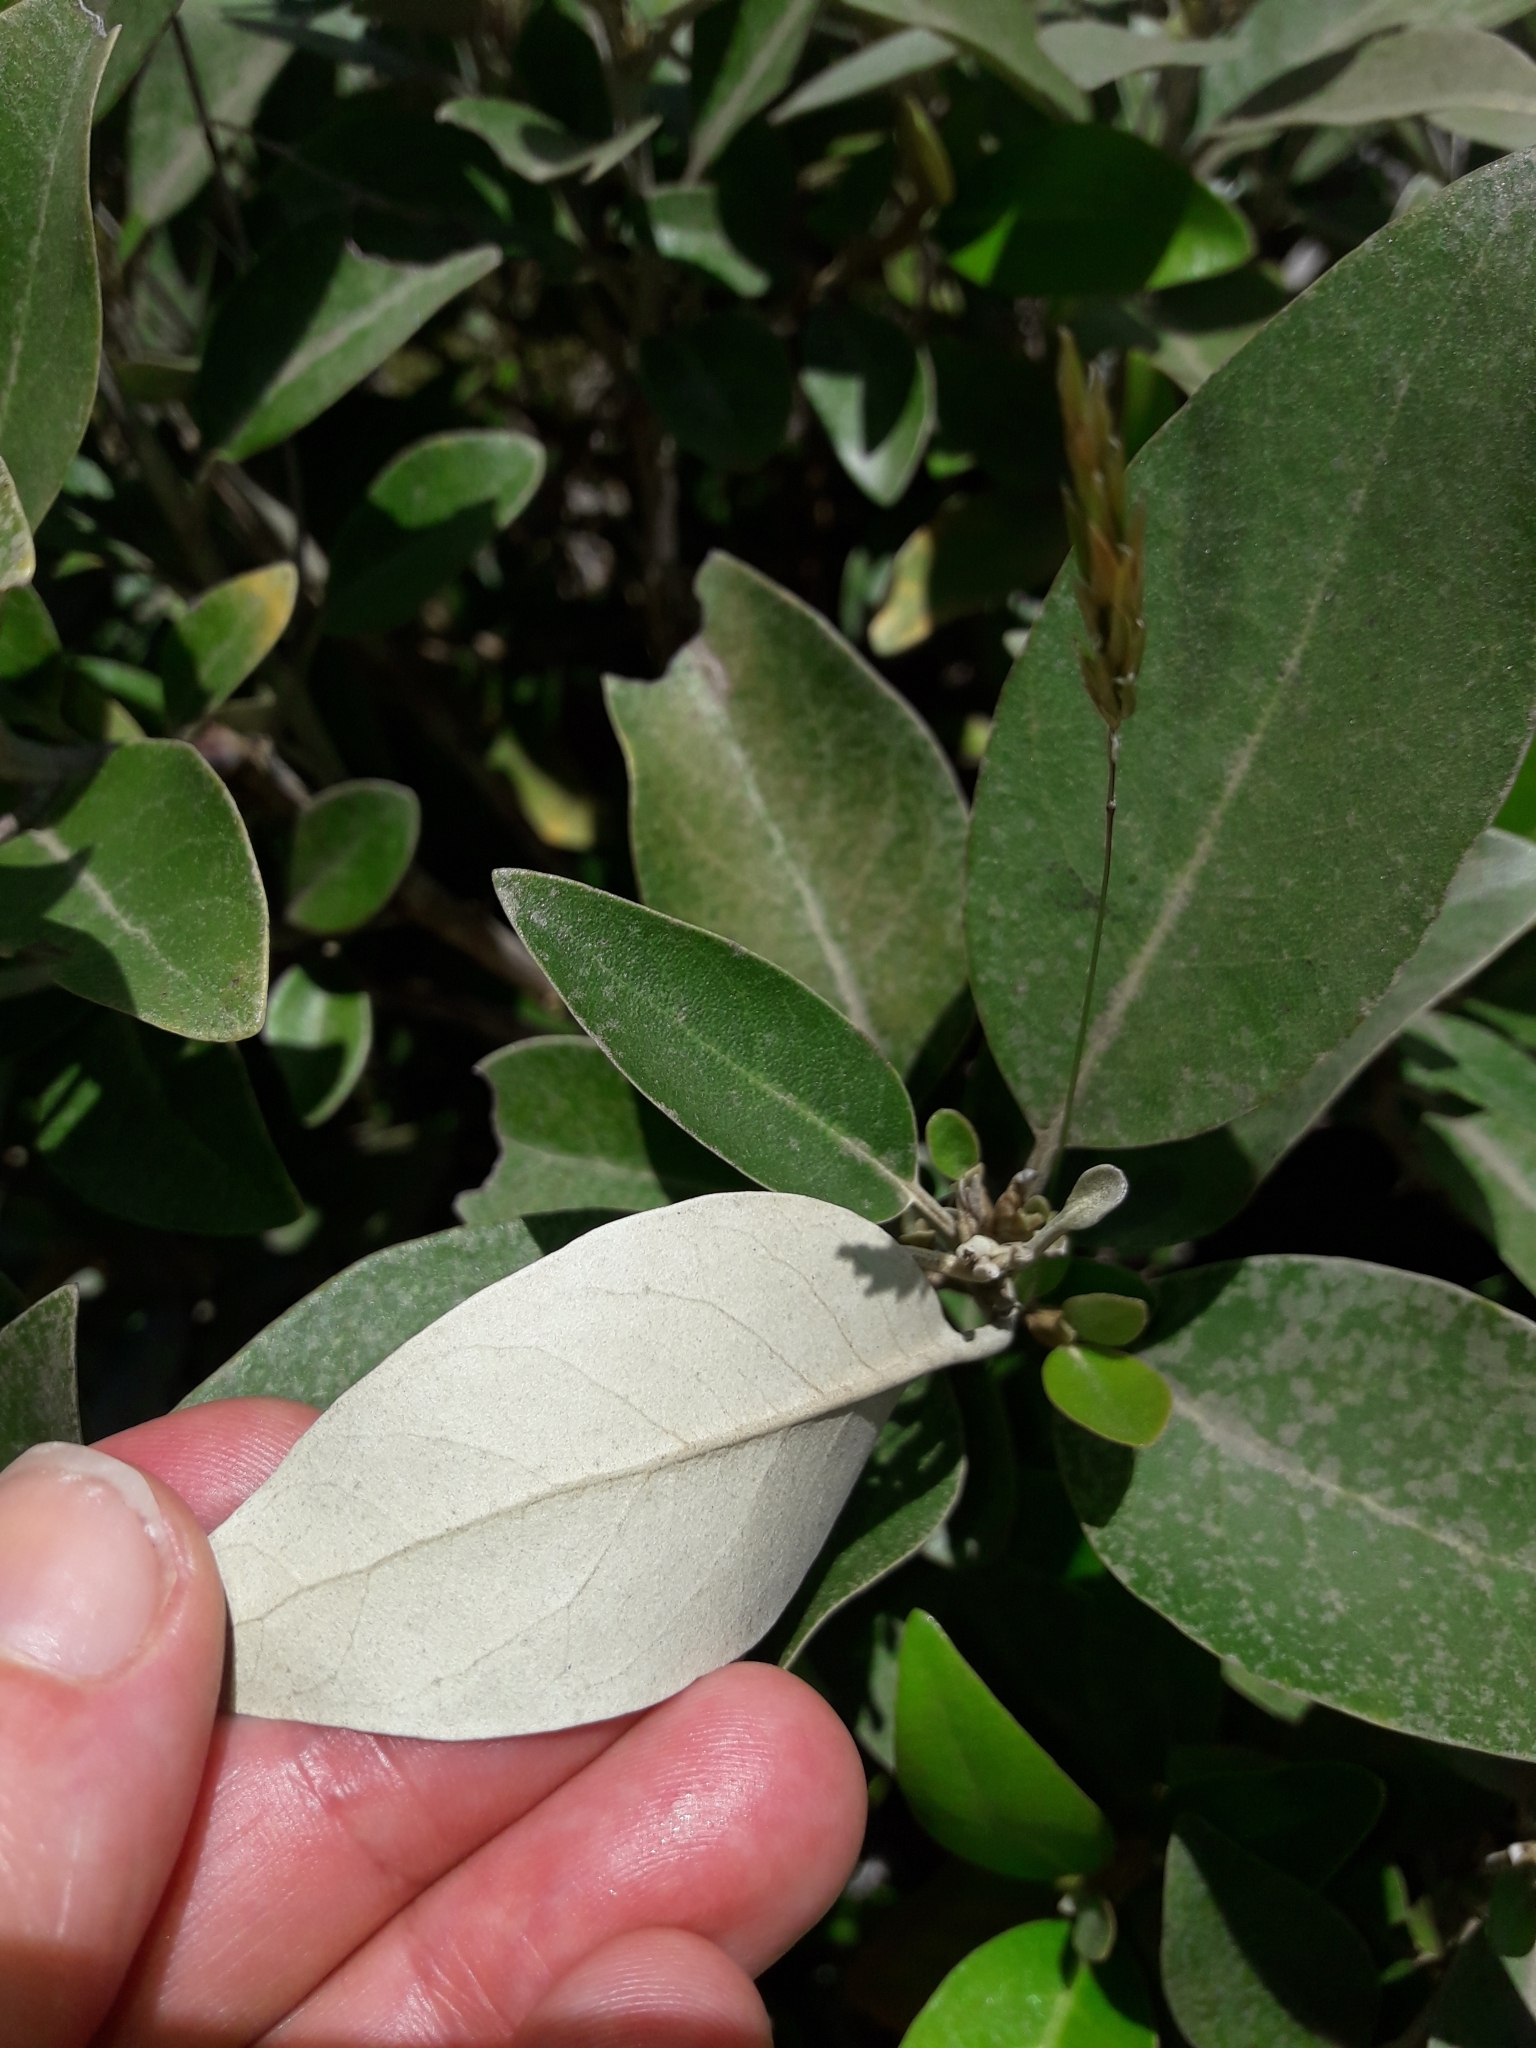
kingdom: Plantae
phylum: Tracheophyta
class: Magnoliopsida
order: Asterales
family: Asteraceae
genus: Olearia
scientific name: Olearia avicenniifolia
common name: Mangrove-leaf daisybush
